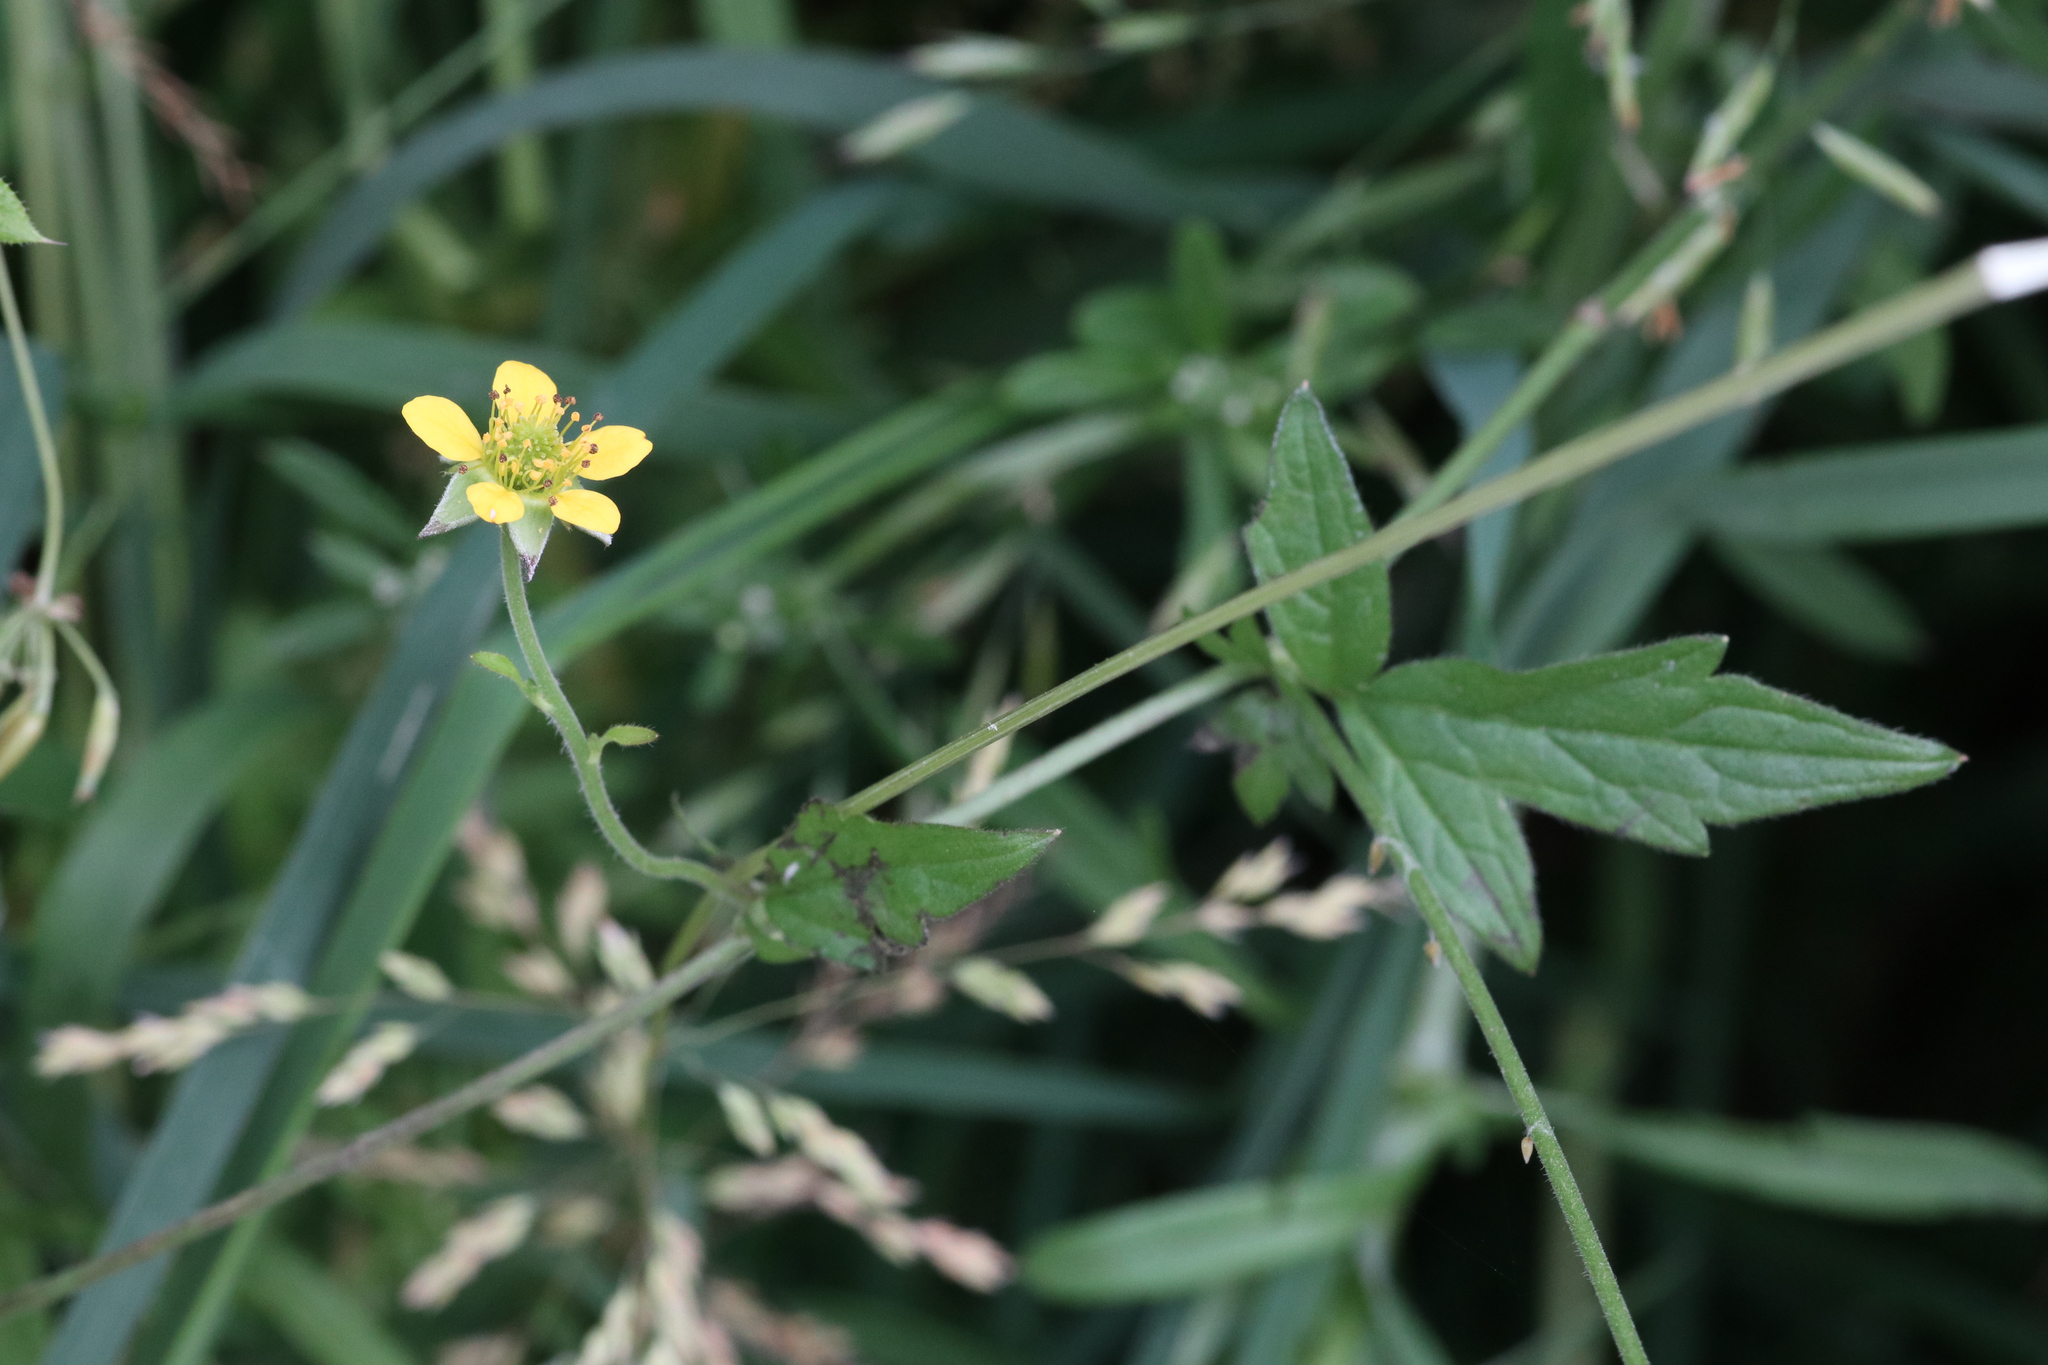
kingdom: Plantae
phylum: Tracheophyta
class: Magnoliopsida
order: Rosales
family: Rosaceae
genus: Geum
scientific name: Geum urbanum
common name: Wood avens
